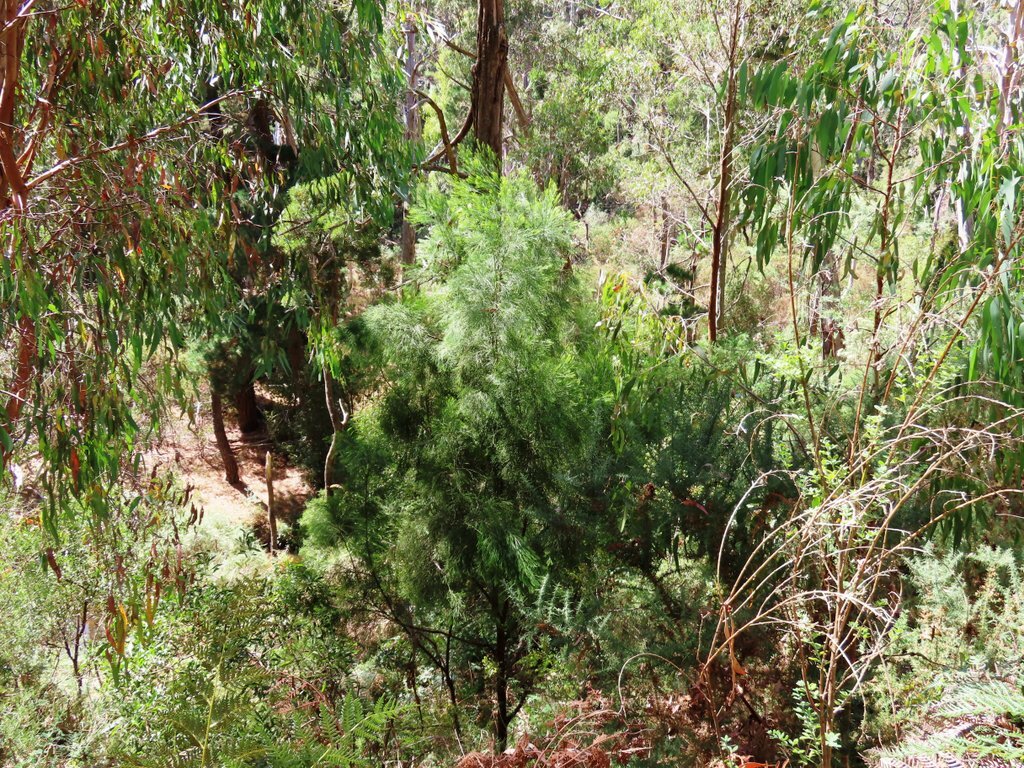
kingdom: Plantae
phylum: Tracheophyta
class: Magnoliopsida
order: Santalales
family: Santalaceae
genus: Exocarpos
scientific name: Exocarpos cupressiformis
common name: Cherry ballart
